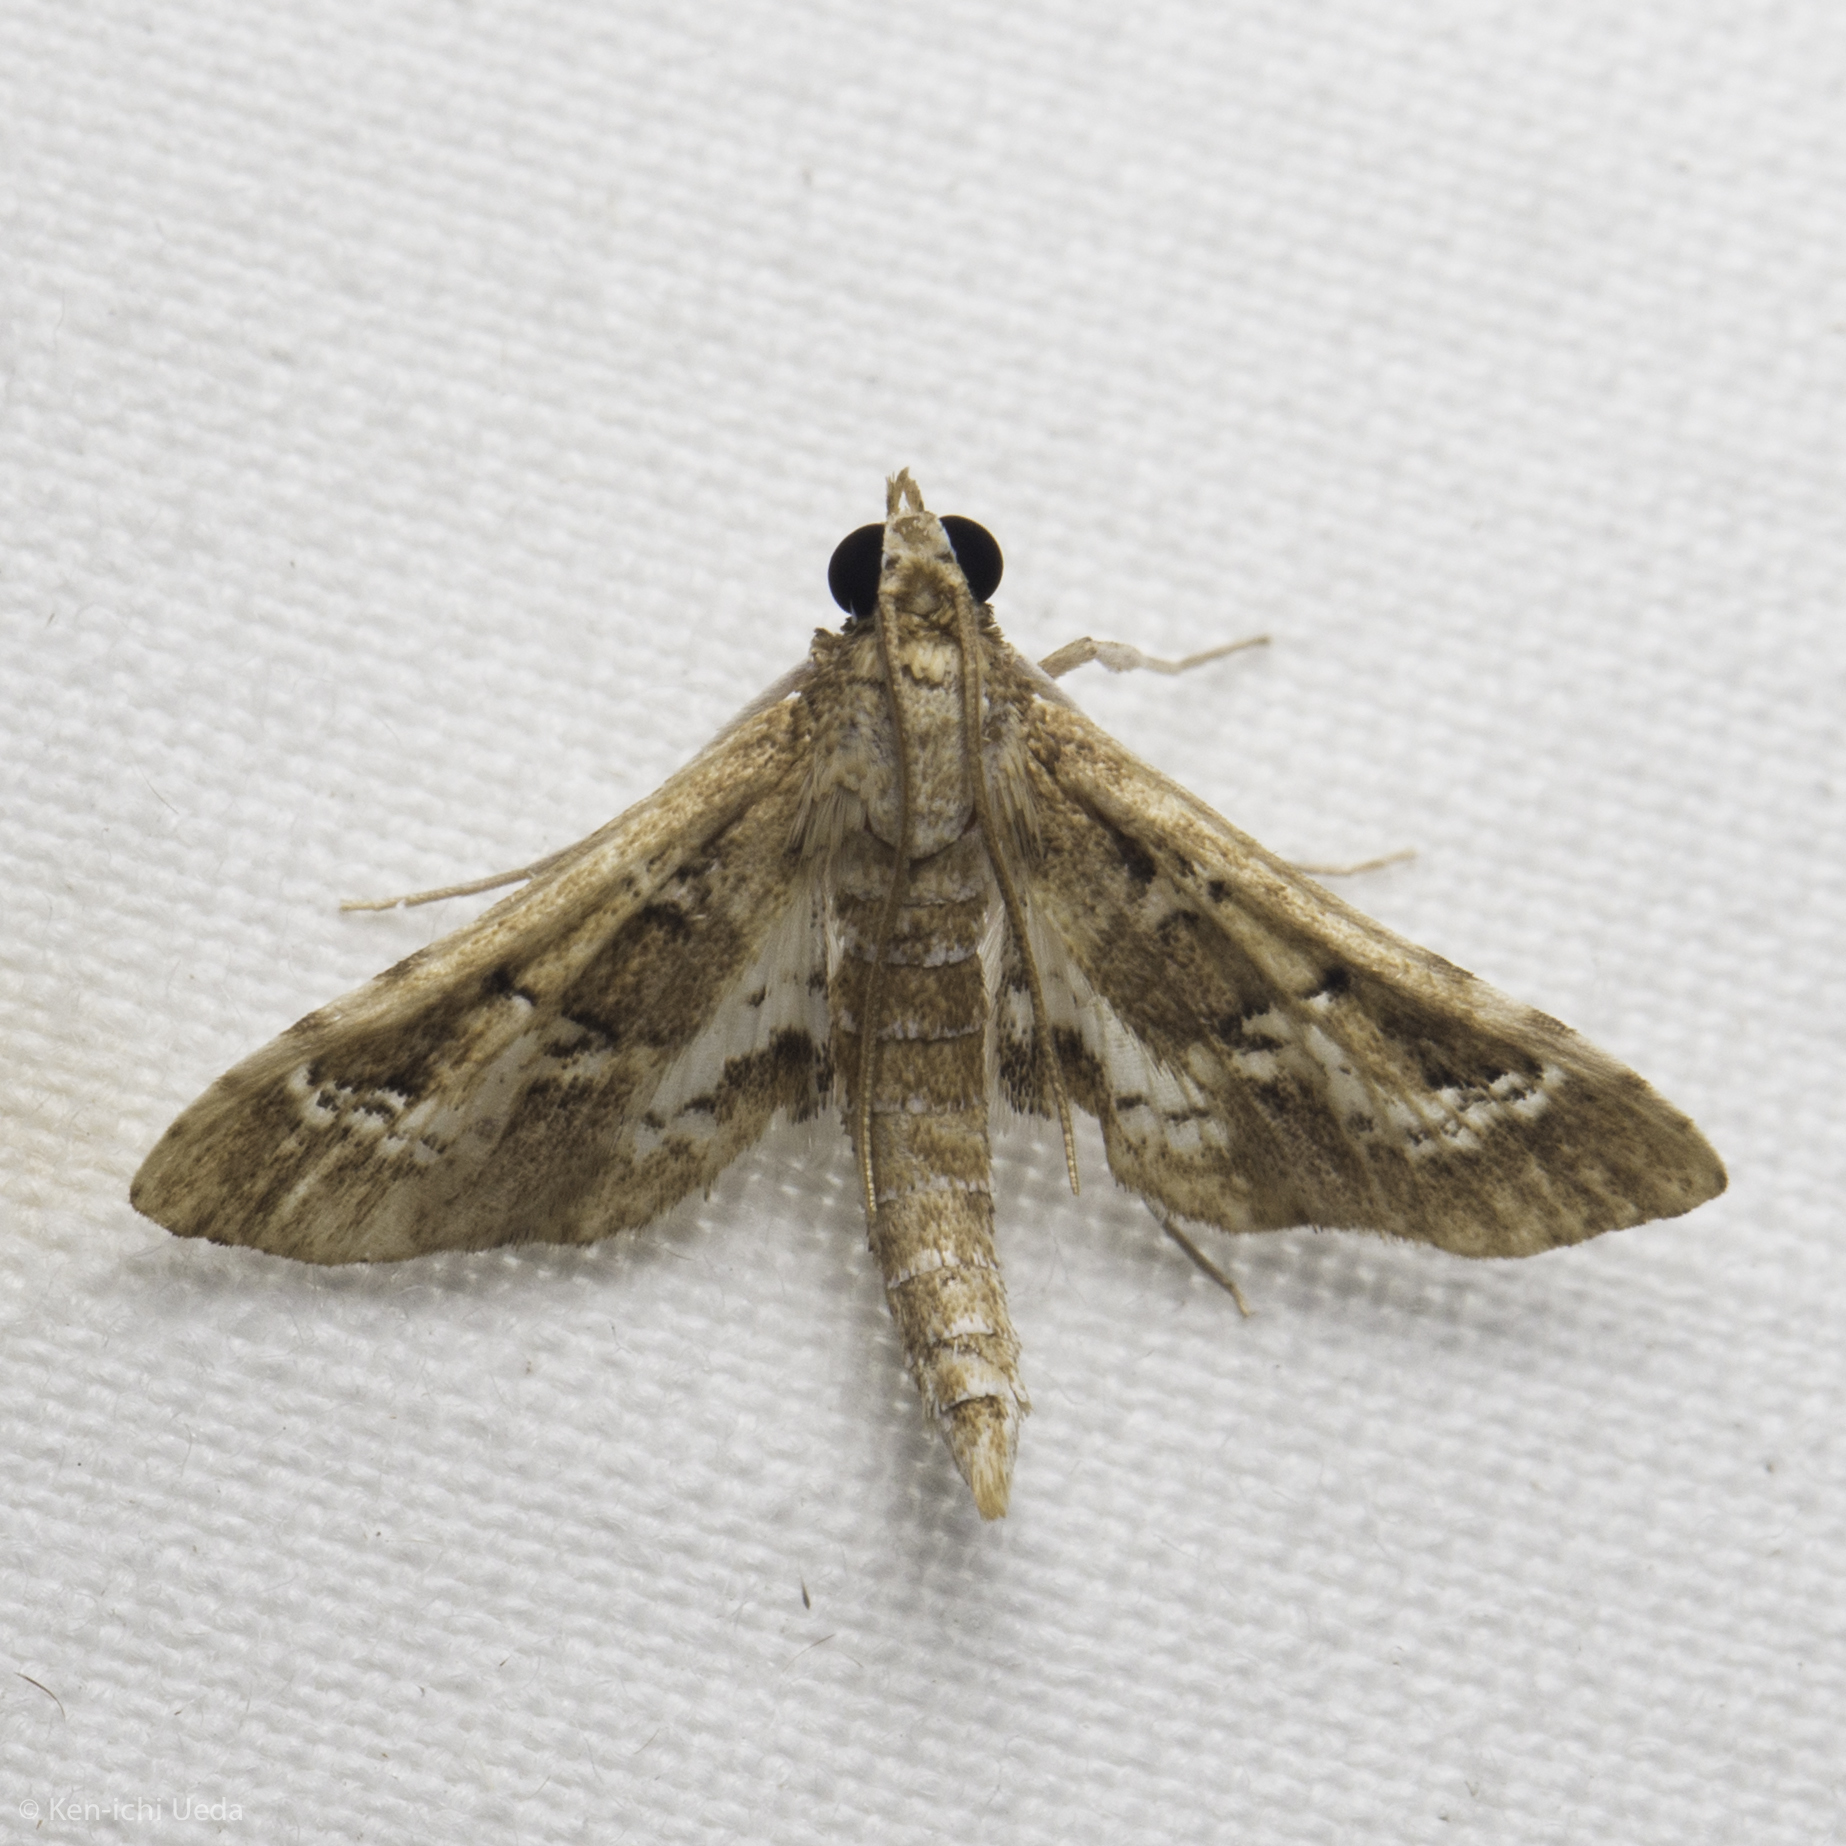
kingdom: Animalia
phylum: Arthropoda
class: Insecta
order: Lepidoptera
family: Crambidae
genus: Syllepte
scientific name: Syllepte Crocidocnemis pellucidalis
